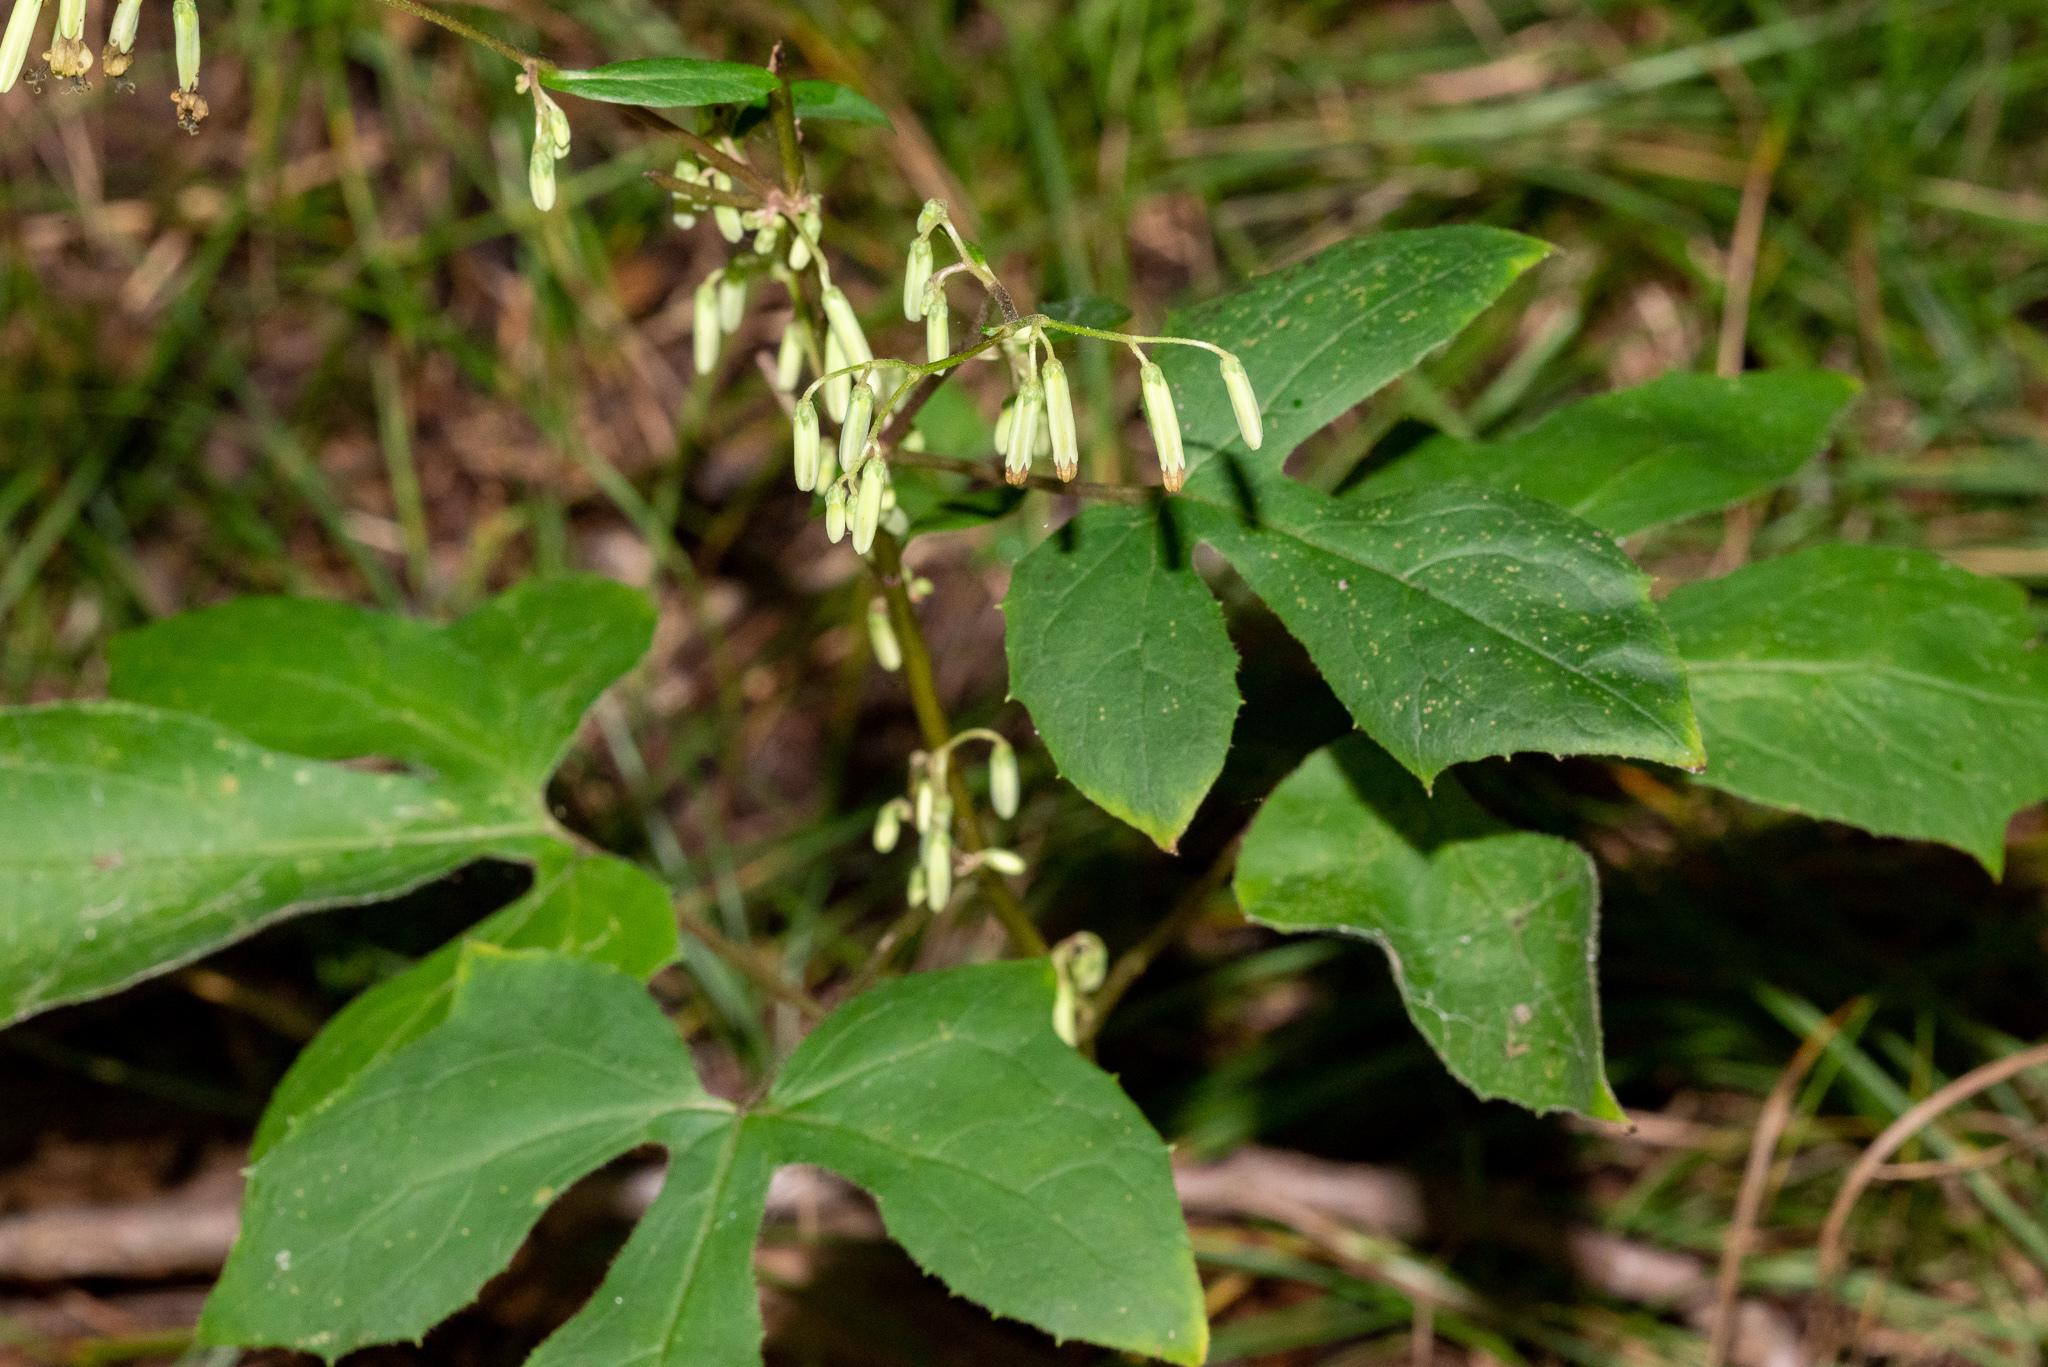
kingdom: Plantae
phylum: Tracheophyta
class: Magnoliopsida
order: Asterales
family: Asteraceae
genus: Nabalus
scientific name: Nabalus altissima
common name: Tall rattlesnakeroot
